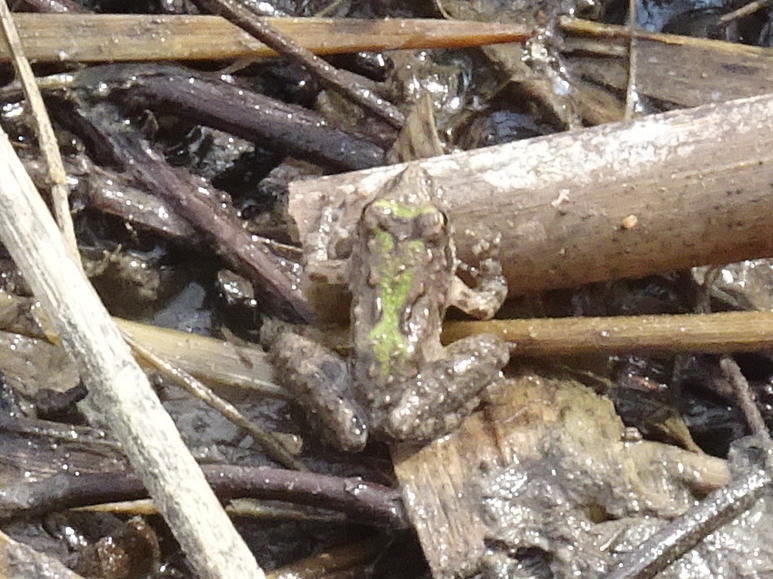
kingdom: Animalia
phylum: Chordata
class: Amphibia
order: Anura
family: Hylidae
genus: Acris
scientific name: Acris blanchardi
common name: Blanchard's cricket frog
